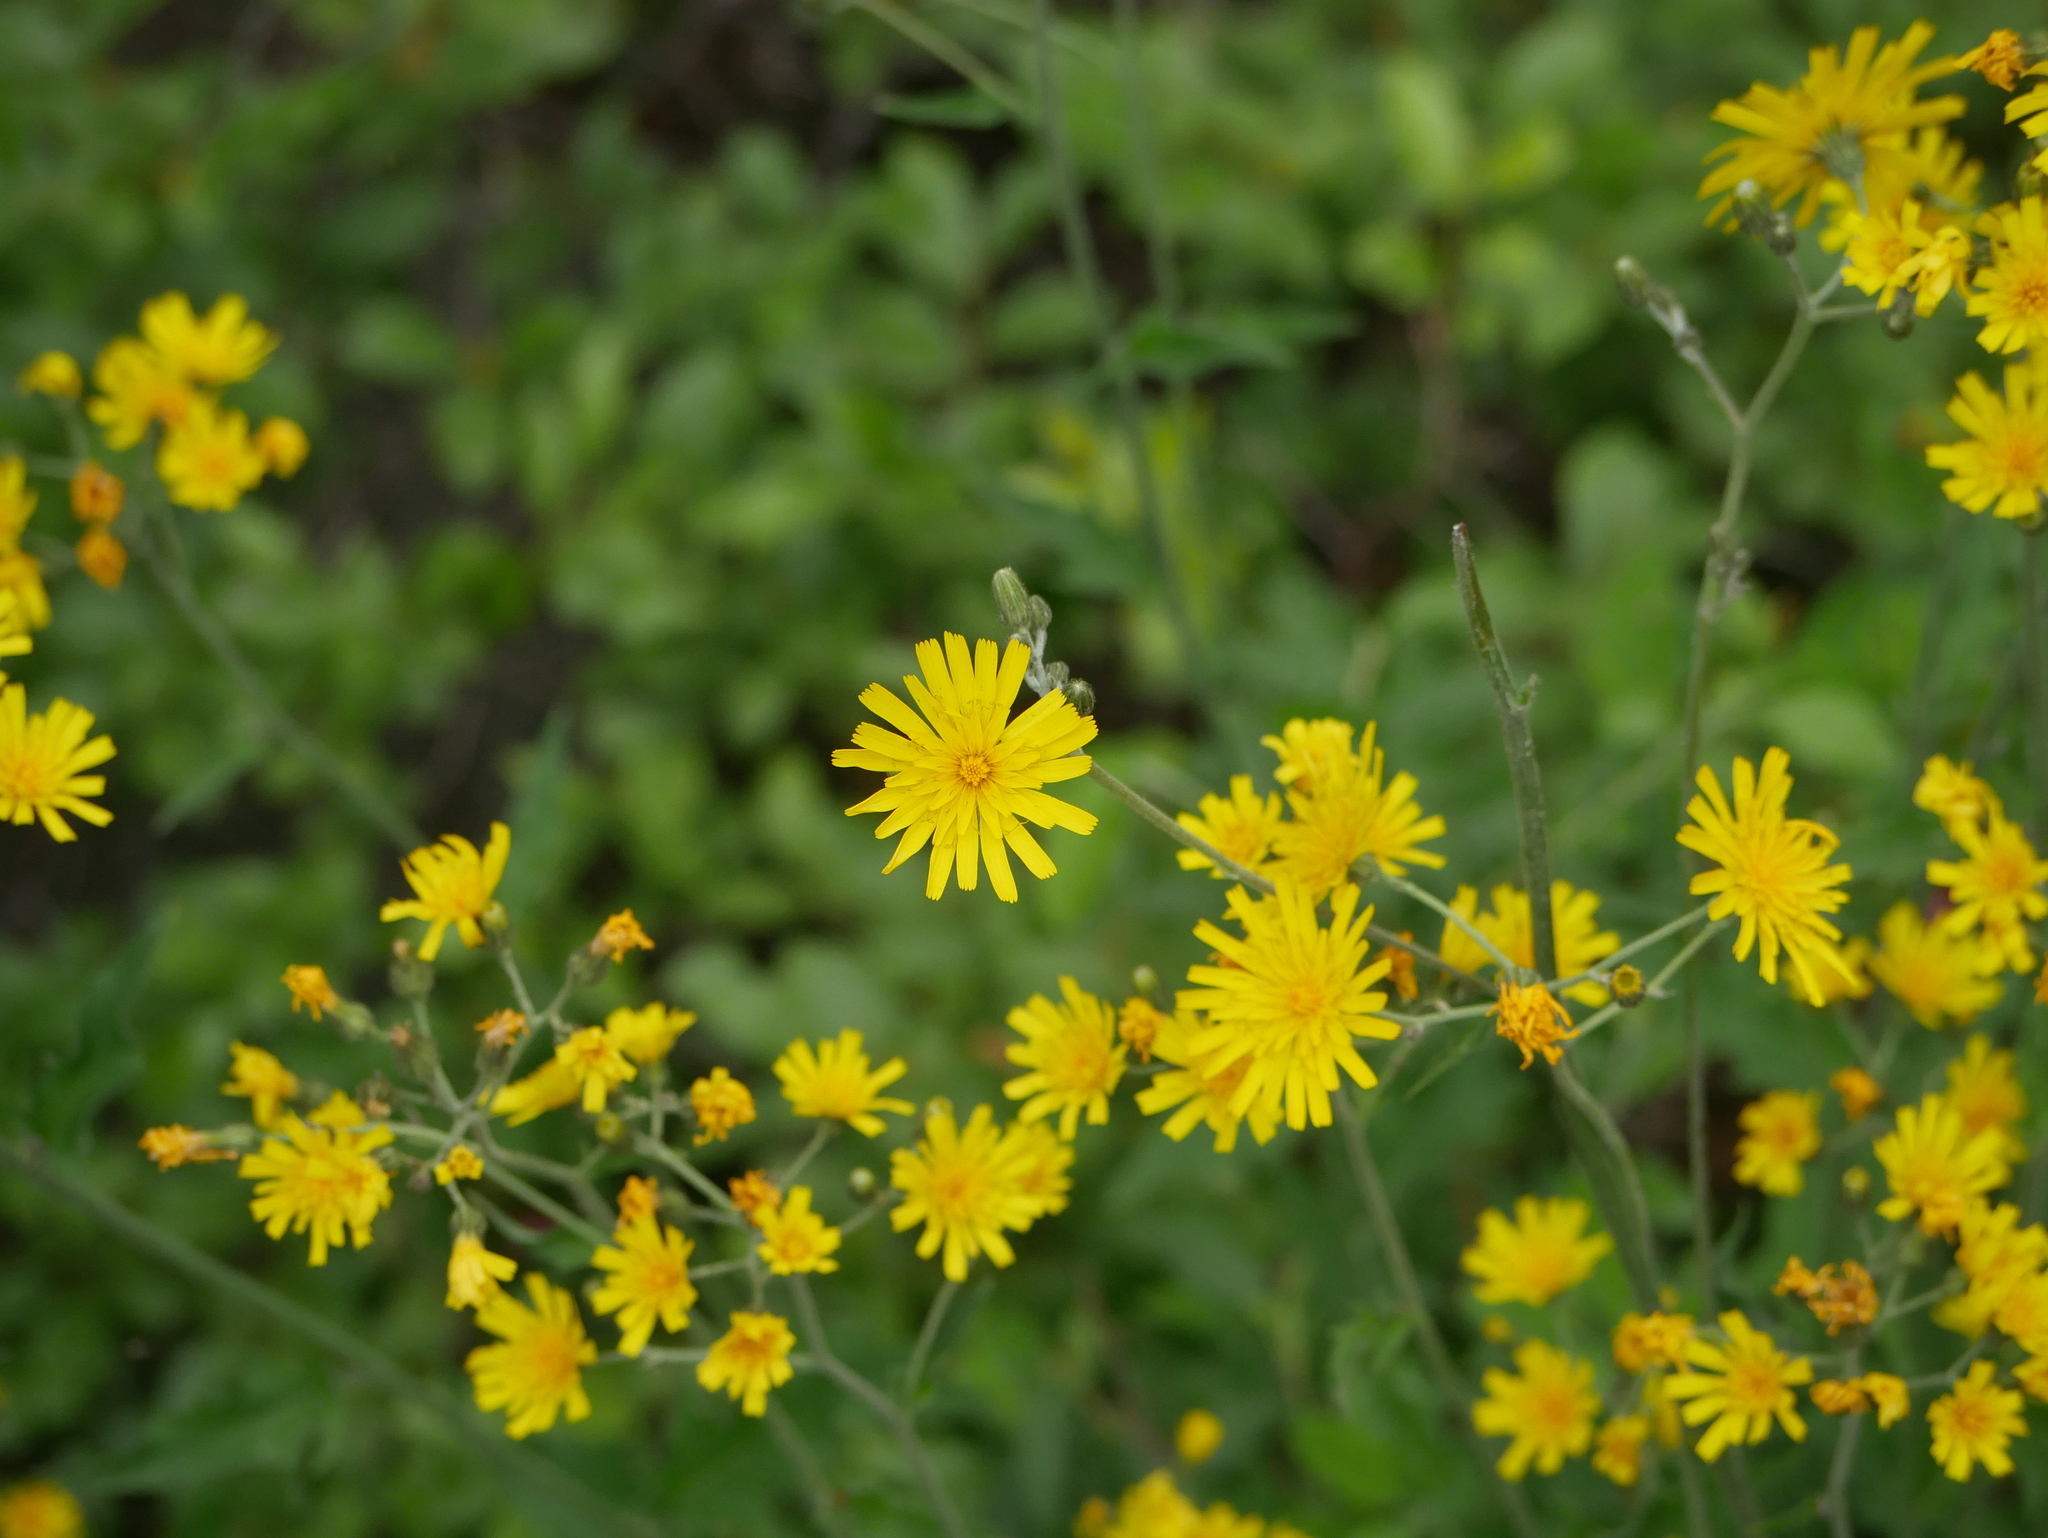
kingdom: Plantae
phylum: Tracheophyta
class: Magnoliopsida
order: Asterales
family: Asteraceae
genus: Hieracium
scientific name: Hieracium maculatum
